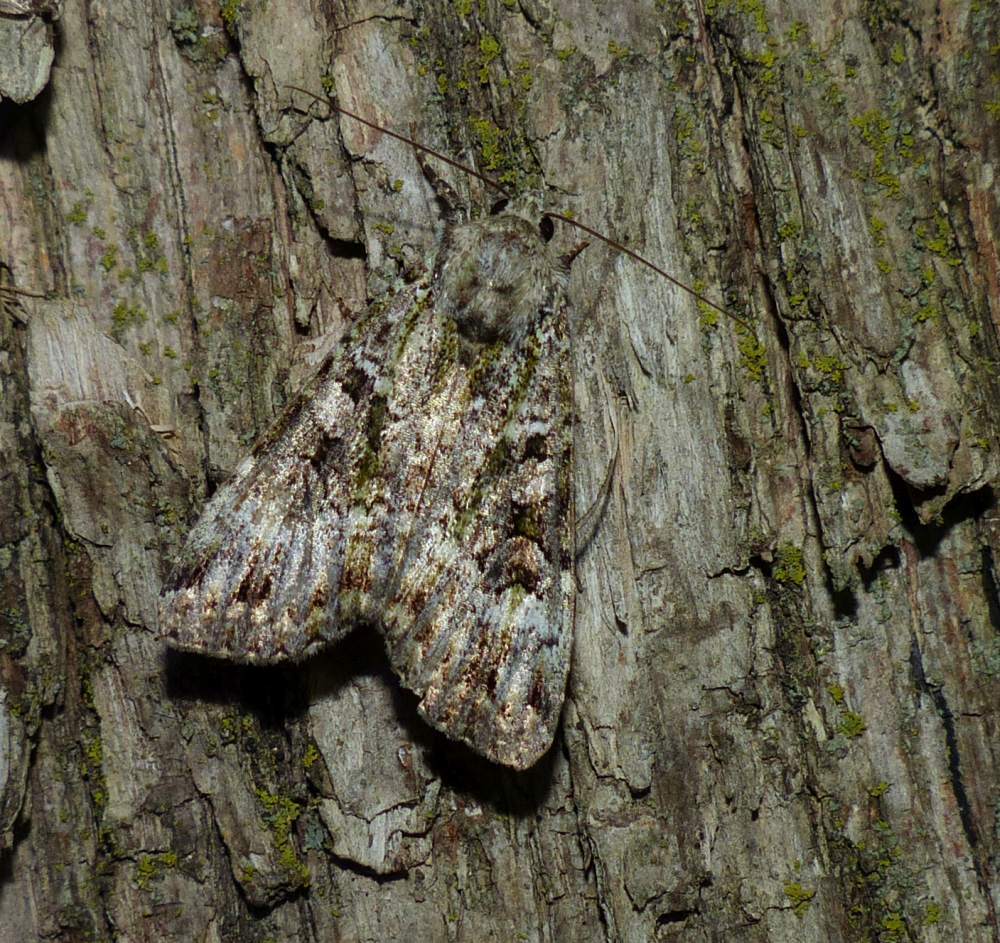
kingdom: Animalia
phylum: Arthropoda
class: Insecta
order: Lepidoptera
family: Noctuidae
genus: Anaplectoides
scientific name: Anaplectoides prasina
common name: Green arches
